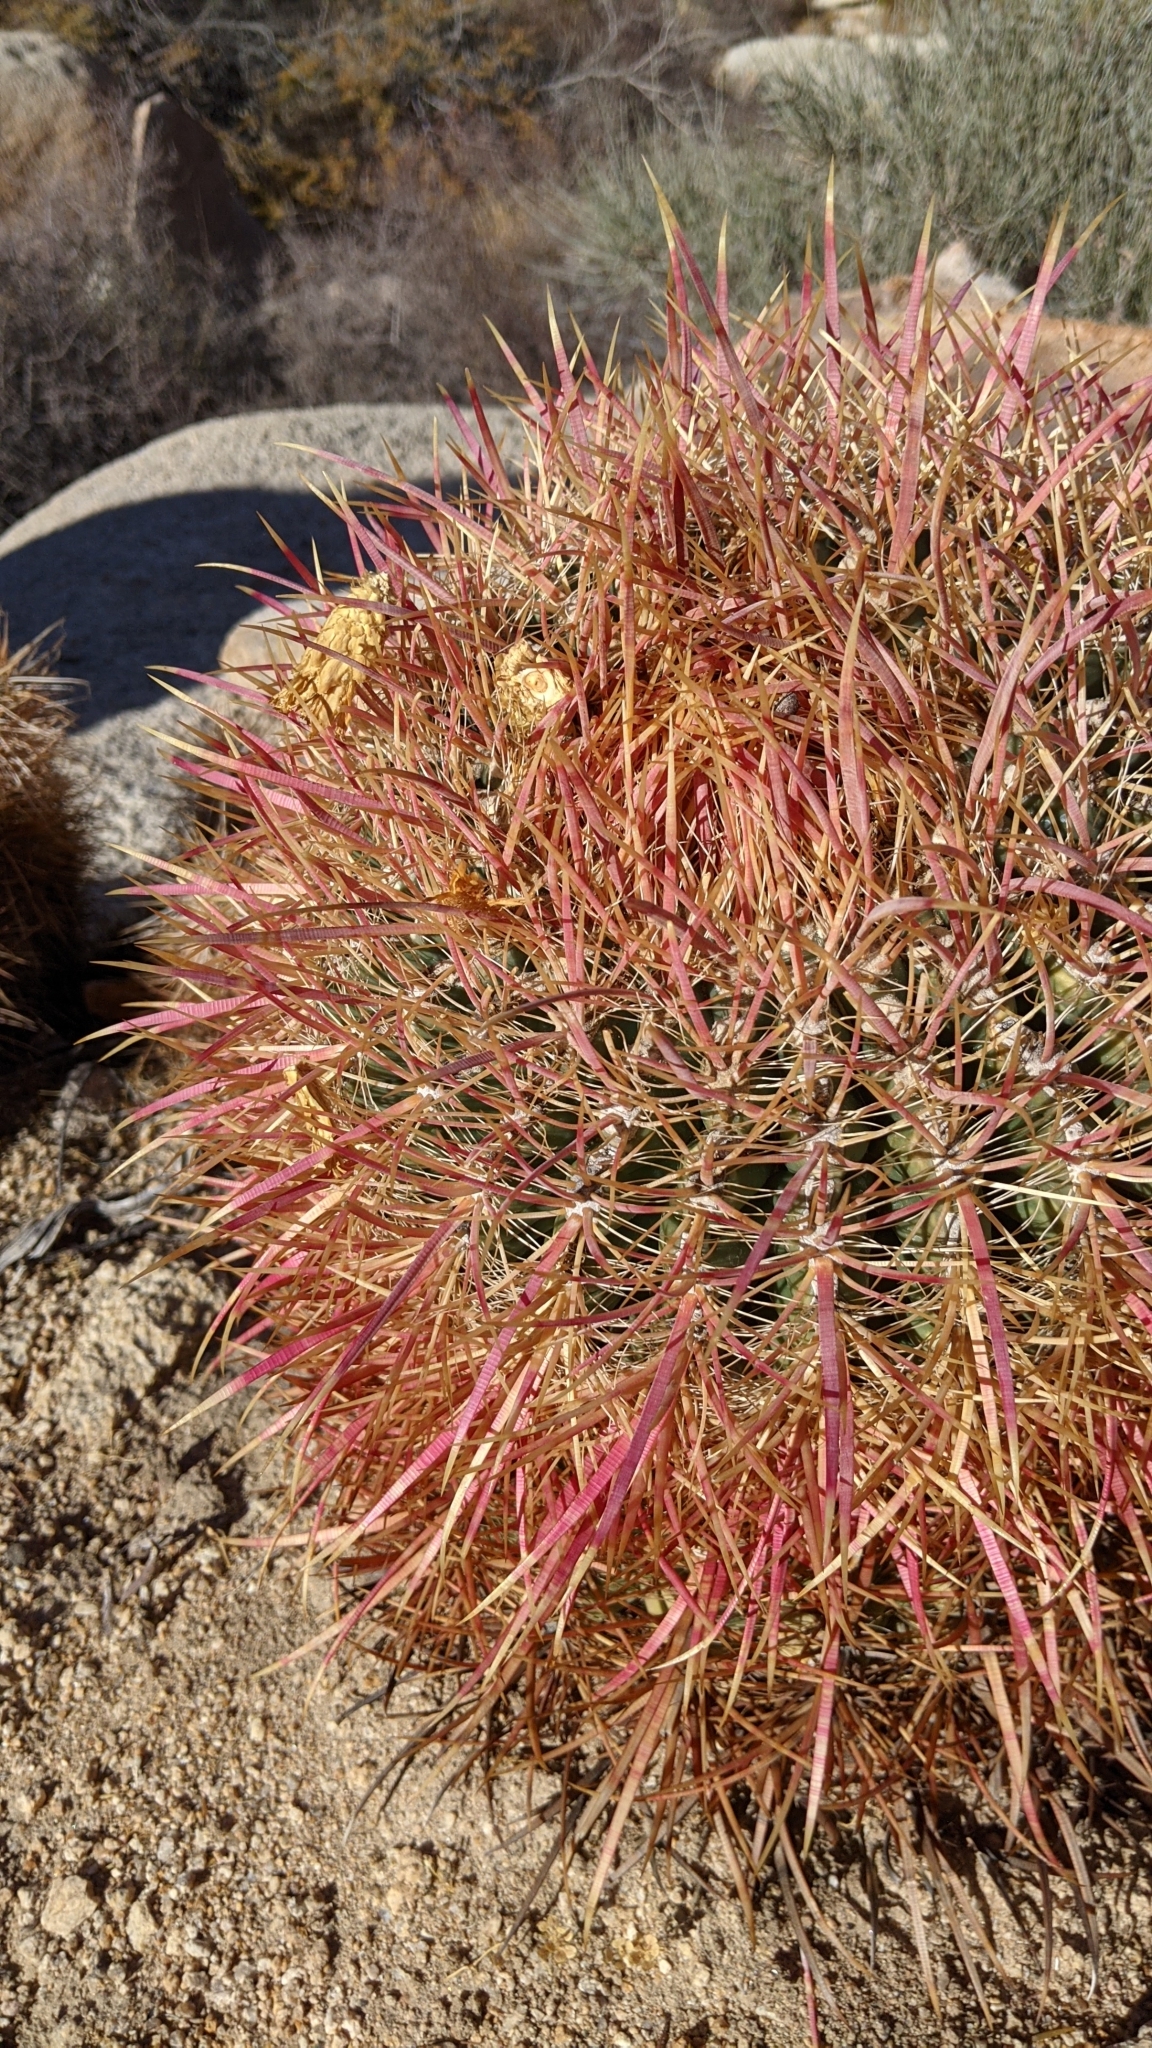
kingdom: Plantae
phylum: Tracheophyta
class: Magnoliopsida
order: Caryophyllales
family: Cactaceae
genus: Ferocactus
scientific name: Ferocactus cylindraceus
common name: California barrel cactus
